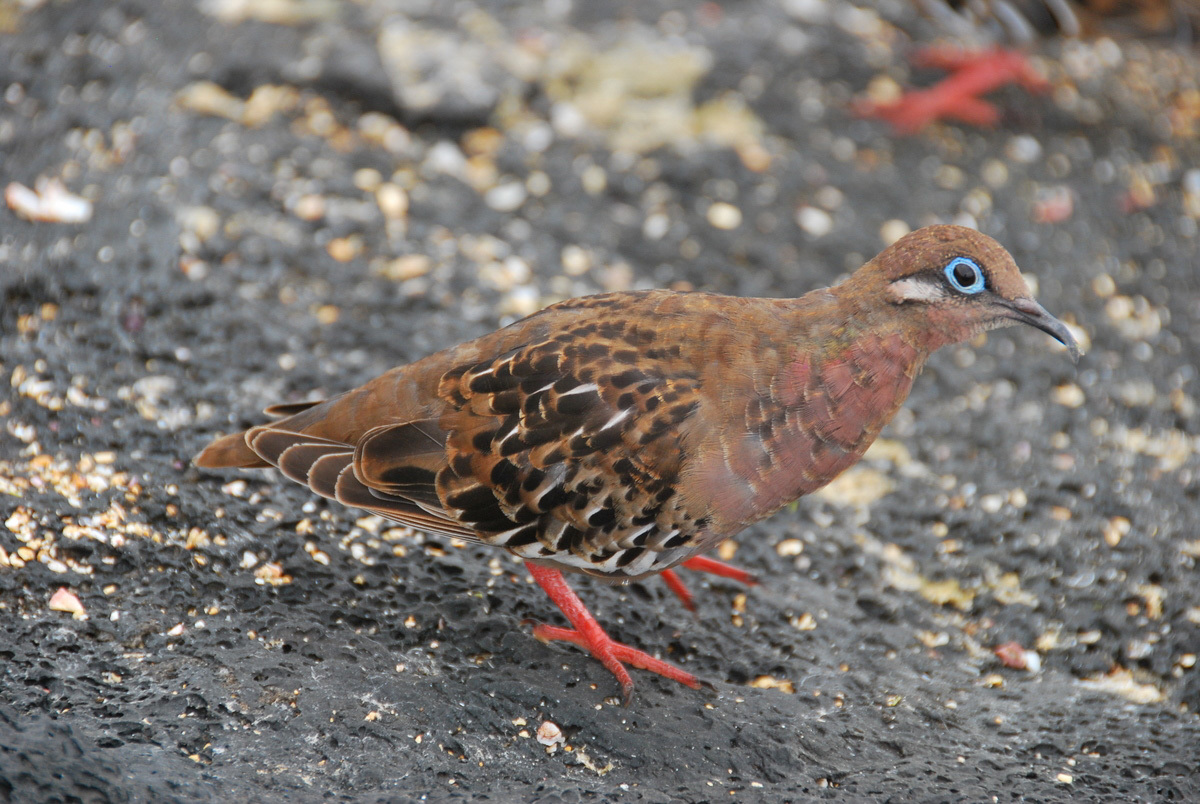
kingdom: Animalia
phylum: Chordata
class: Aves
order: Columbiformes
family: Columbidae
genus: Zenaida
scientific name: Zenaida galapagoensis
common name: Galapagos dove
